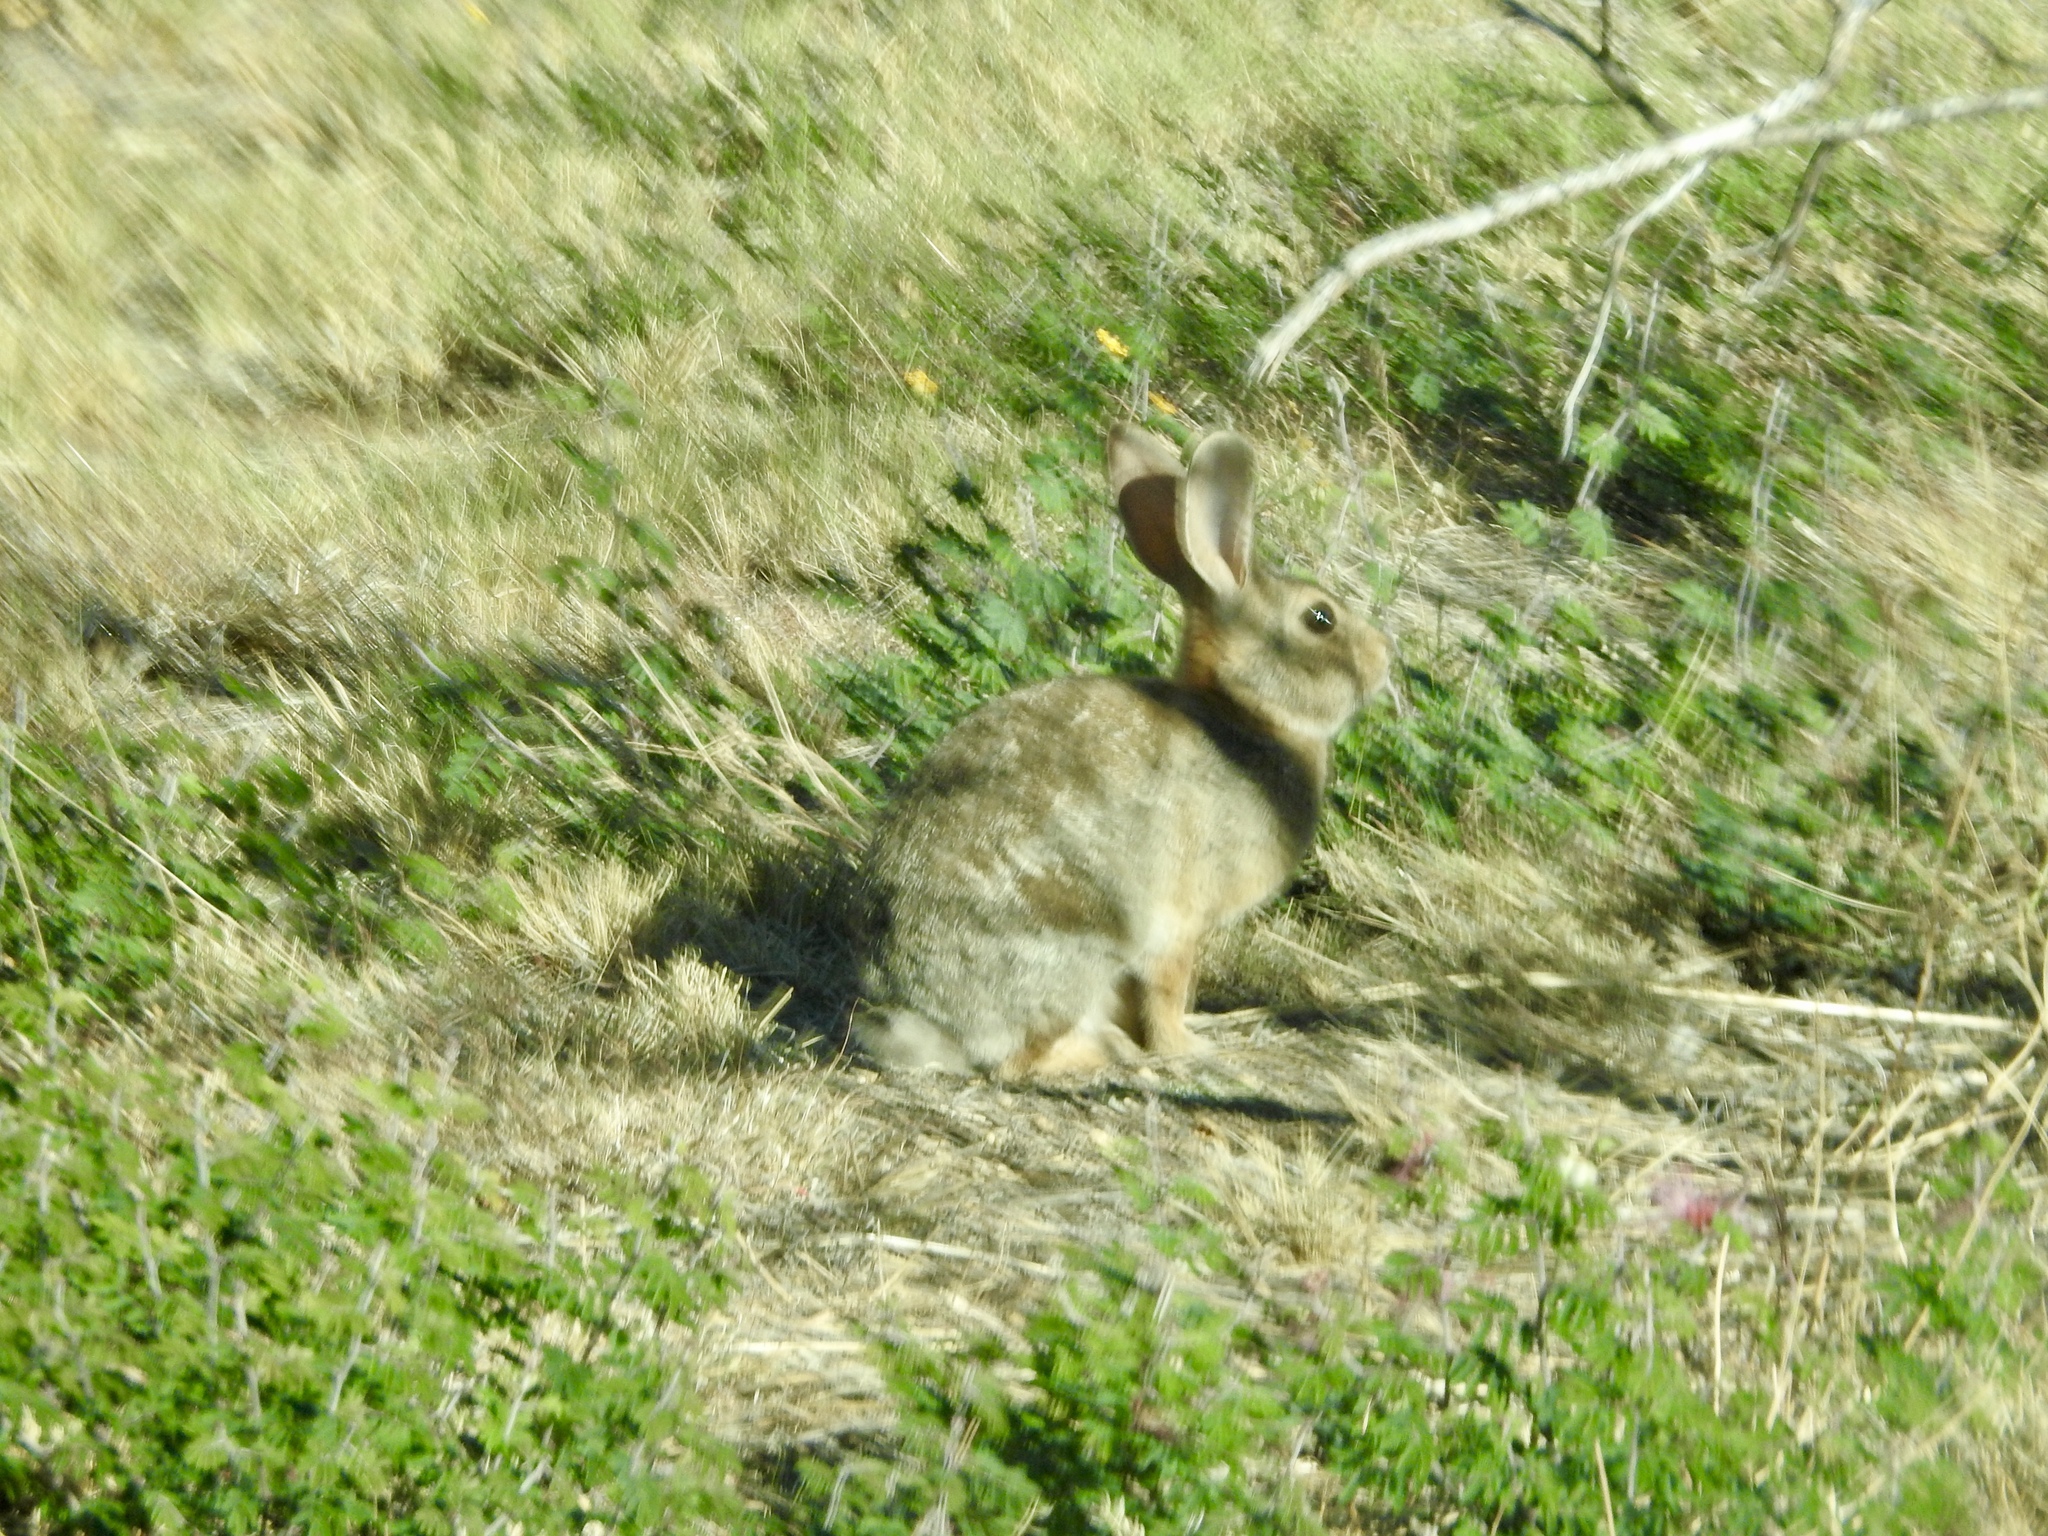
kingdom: Animalia
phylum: Chordata
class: Mammalia
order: Lagomorpha
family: Leporidae
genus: Sylvilagus
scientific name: Sylvilagus audubonii
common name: Desert cottontail
